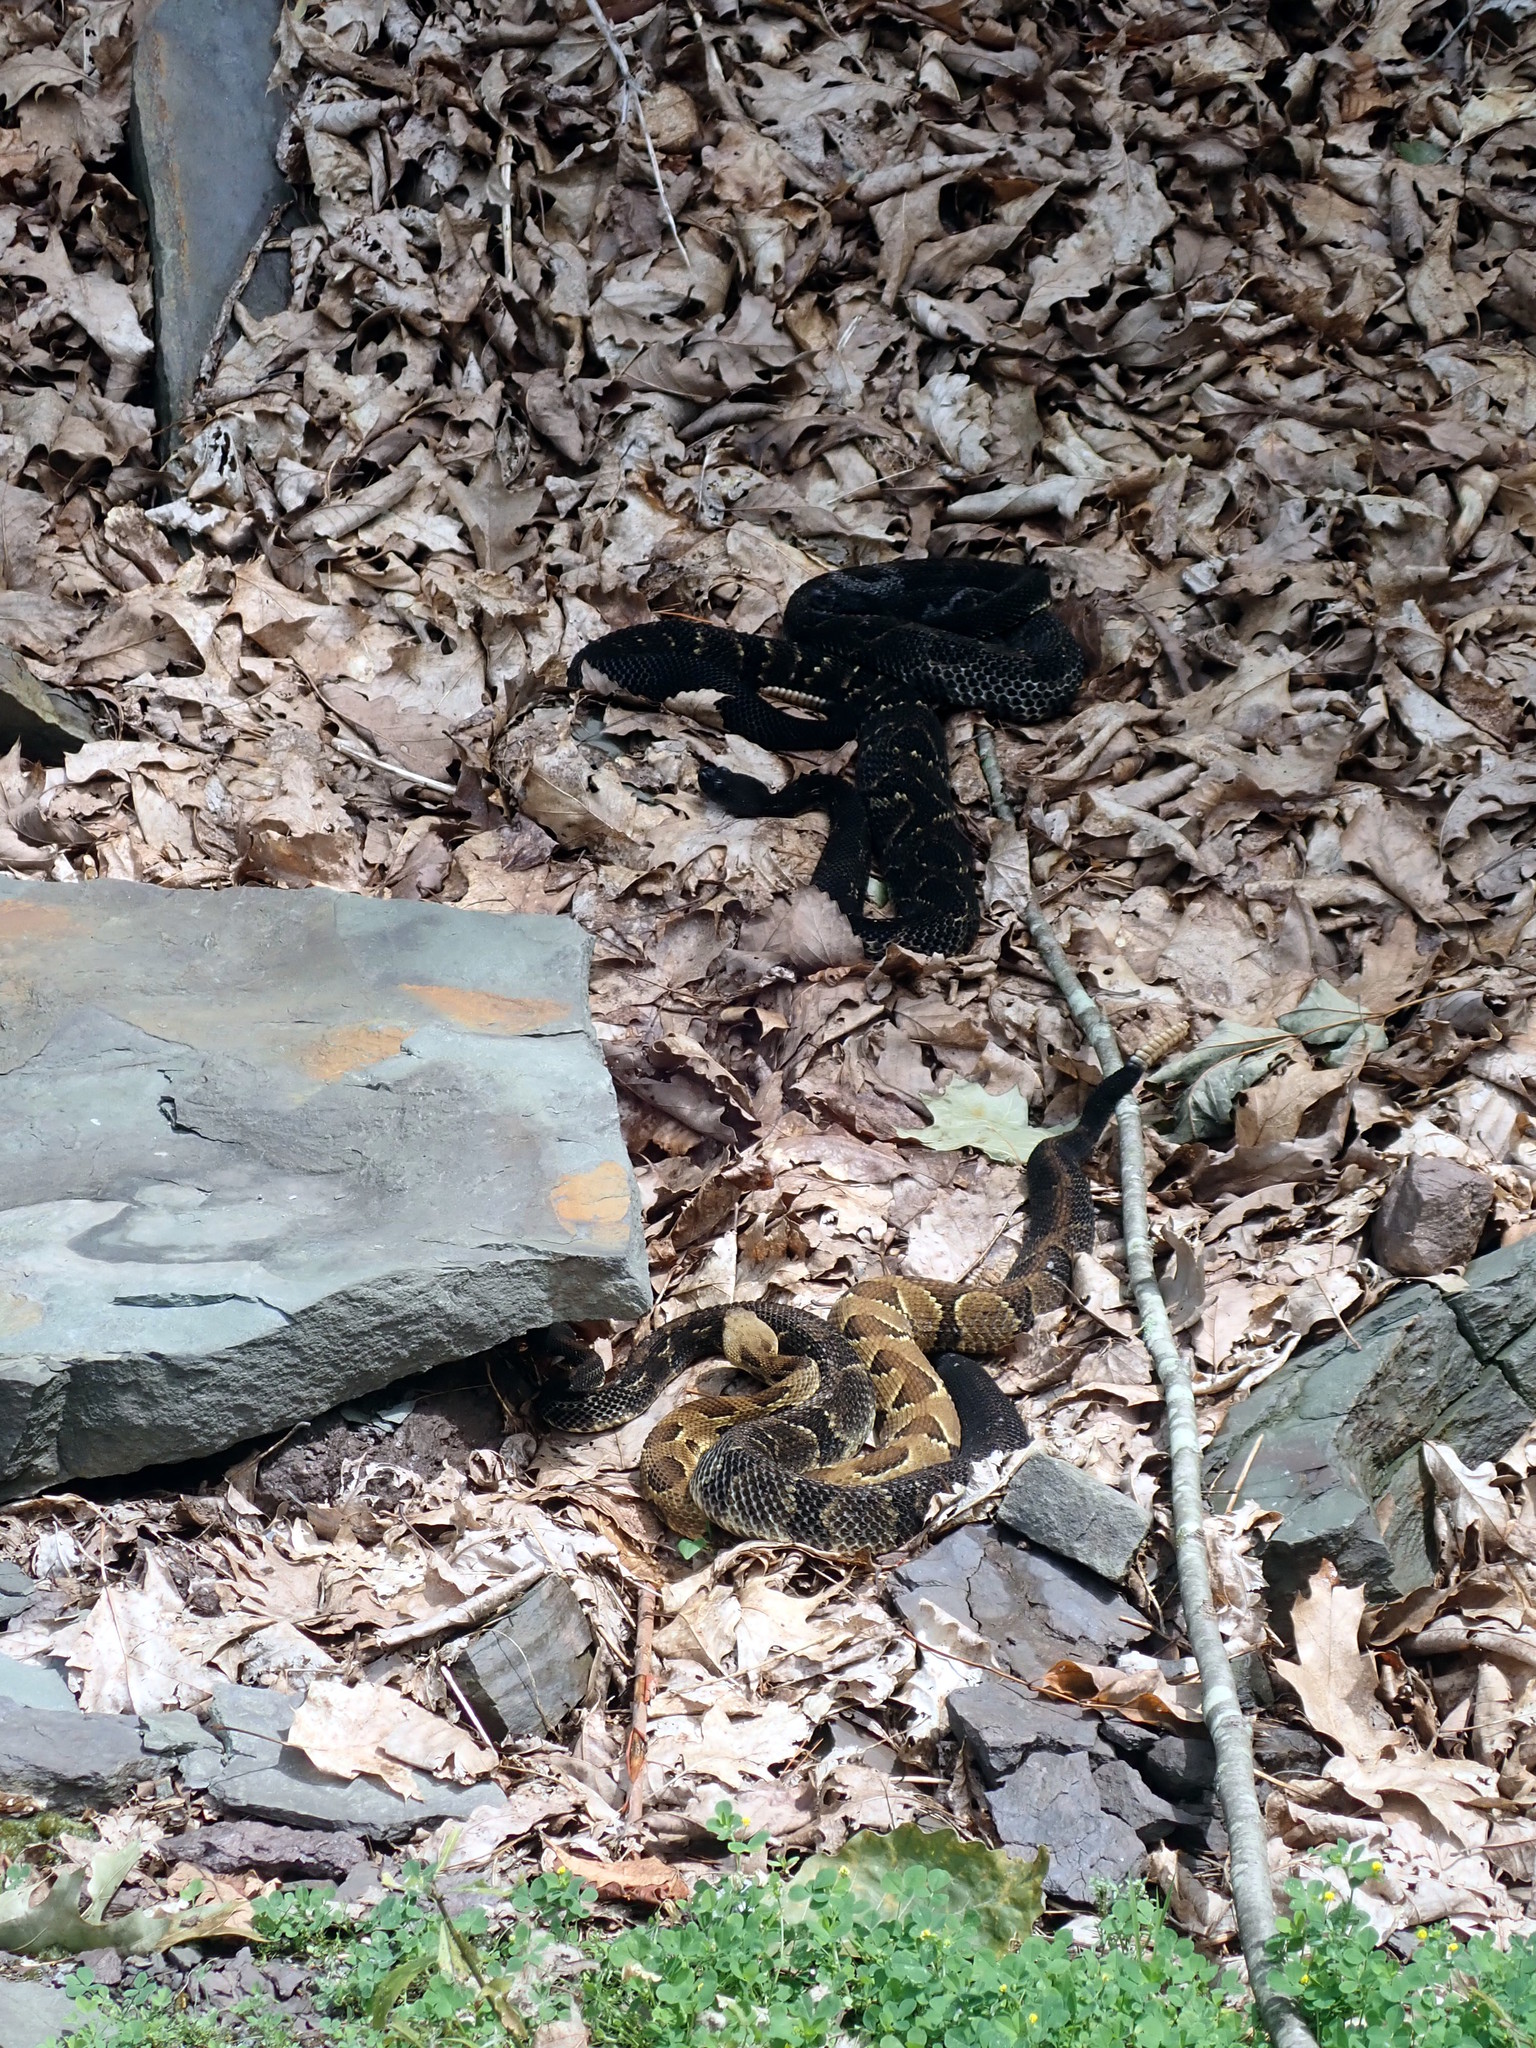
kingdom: Animalia
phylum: Chordata
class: Squamata
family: Viperidae
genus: Crotalus
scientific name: Crotalus horridus
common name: Timber rattlesnake
